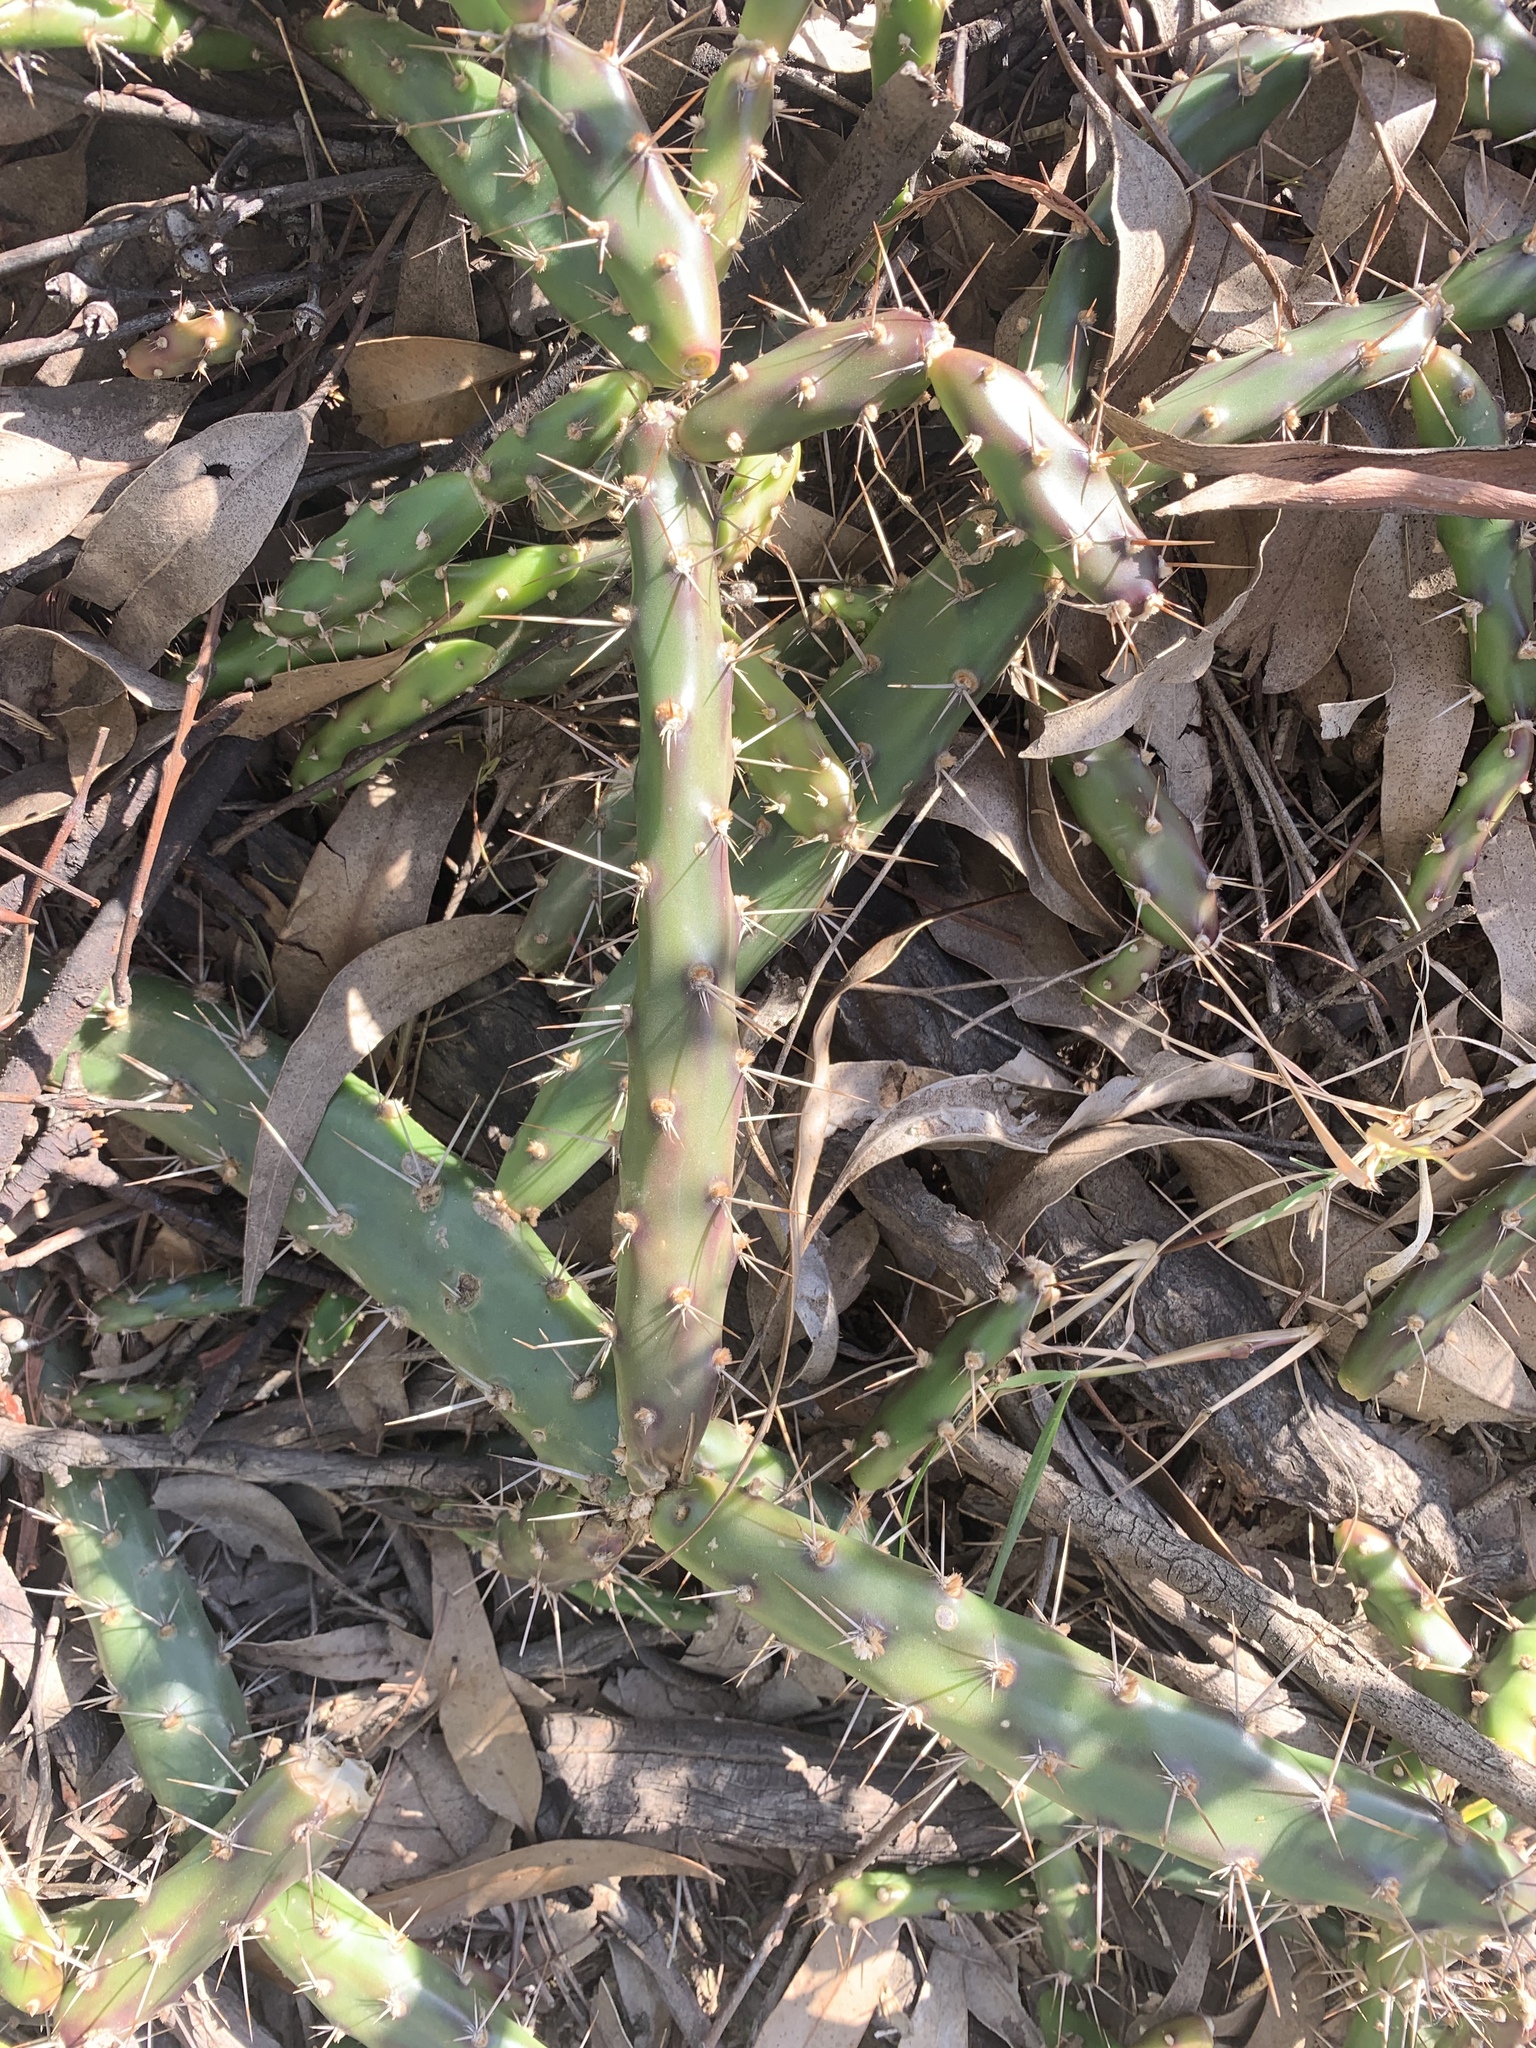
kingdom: Plantae
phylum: Tracheophyta
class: Magnoliopsida
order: Caryophyllales
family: Cactaceae
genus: Opuntia
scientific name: Opuntia aurantiaca
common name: Jointed pricklypear
